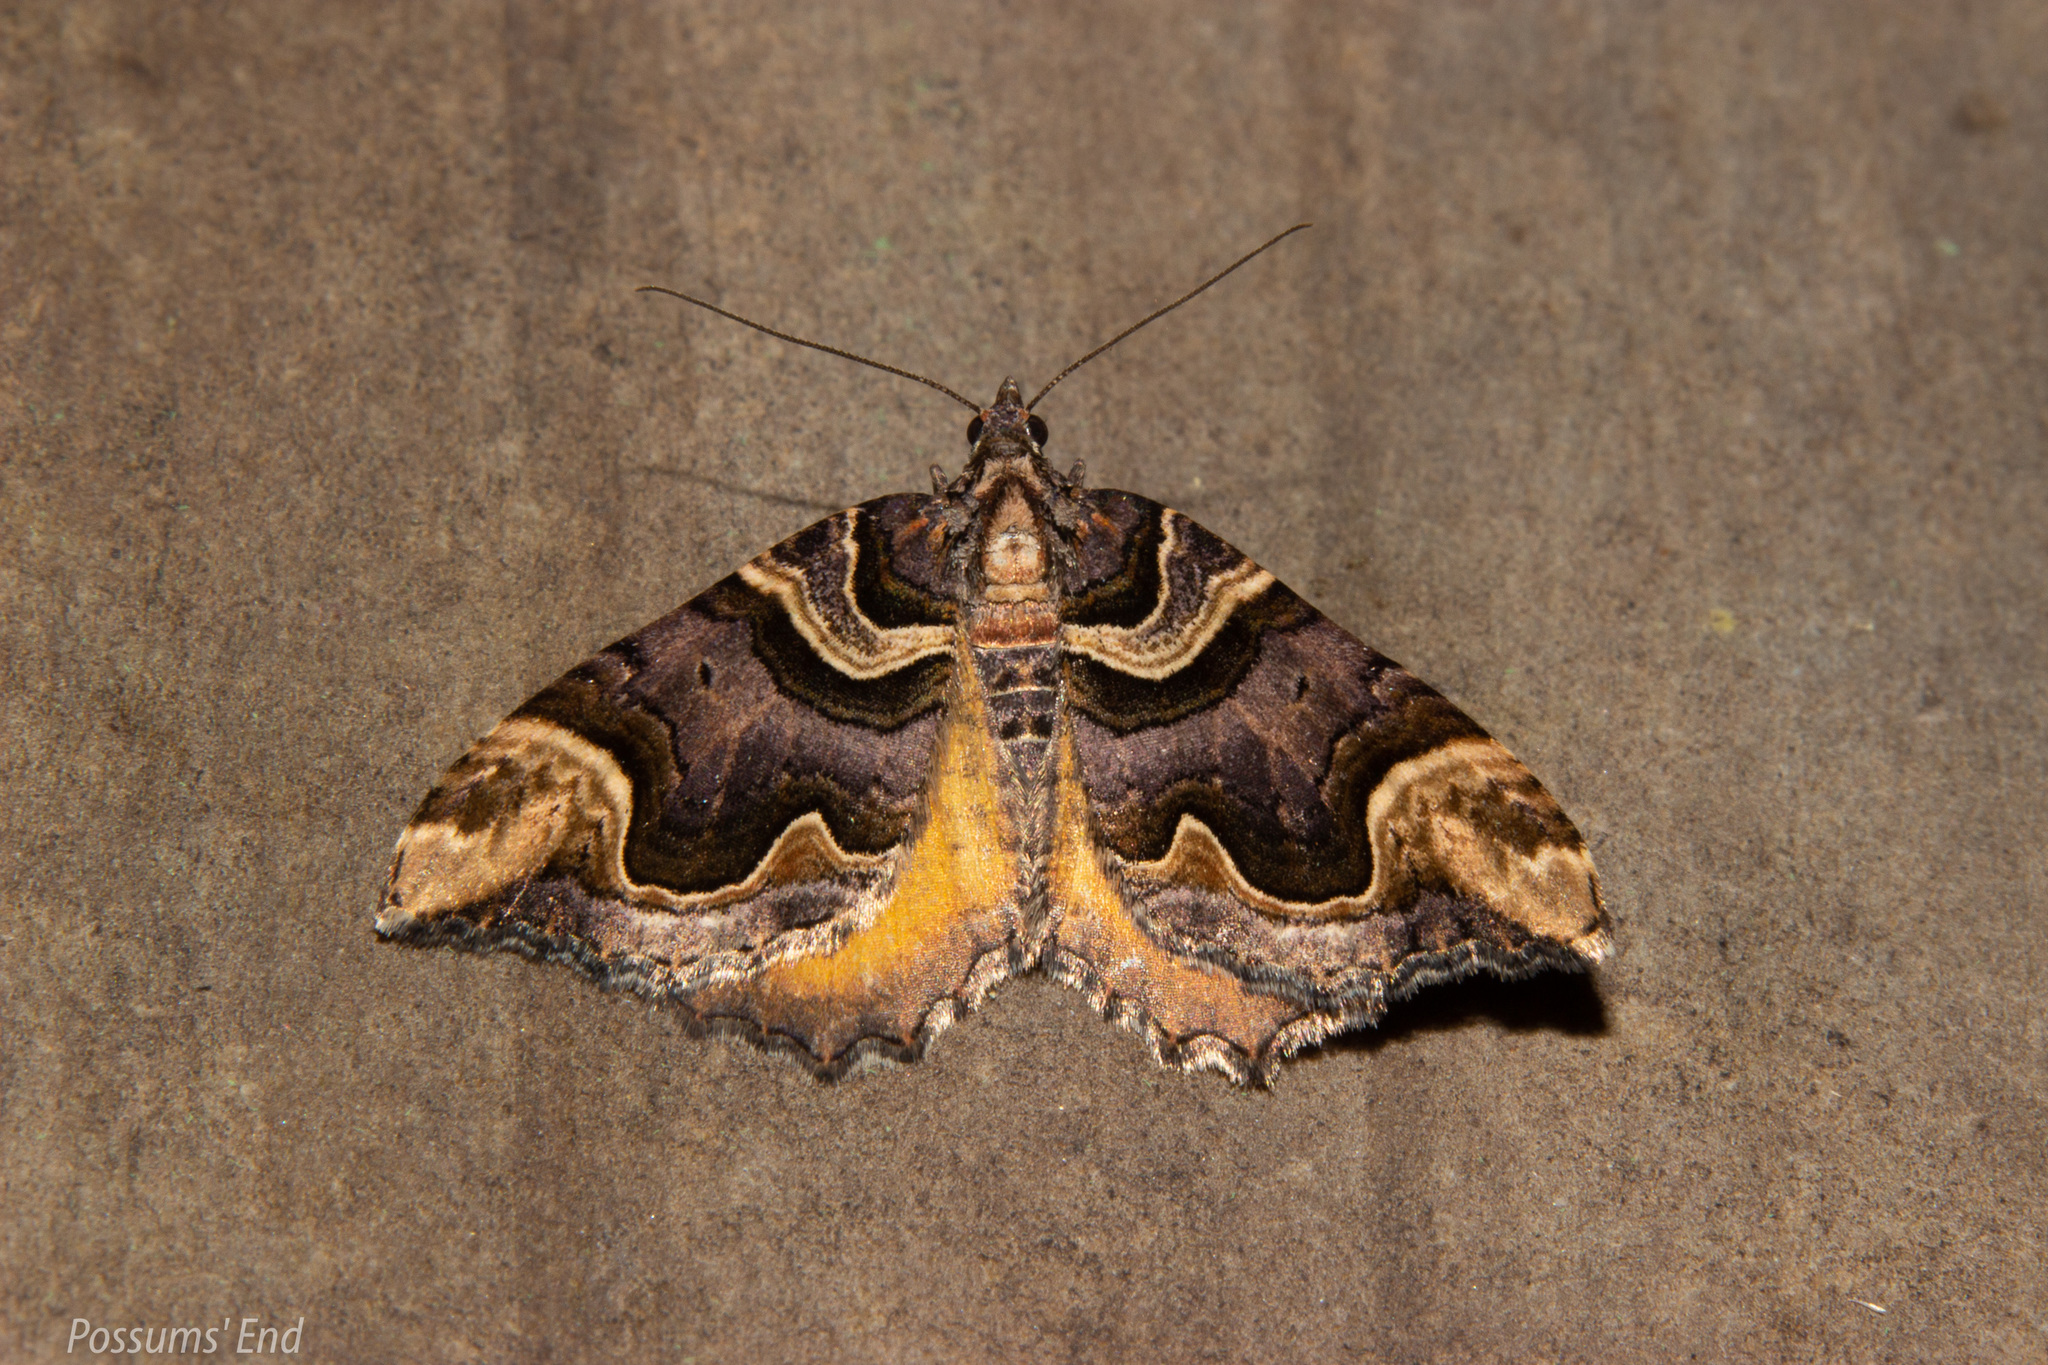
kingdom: Animalia
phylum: Arthropoda
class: Insecta
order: Lepidoptera
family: Geometridae
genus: Asaphodes
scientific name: Asaphodes chlamydota
